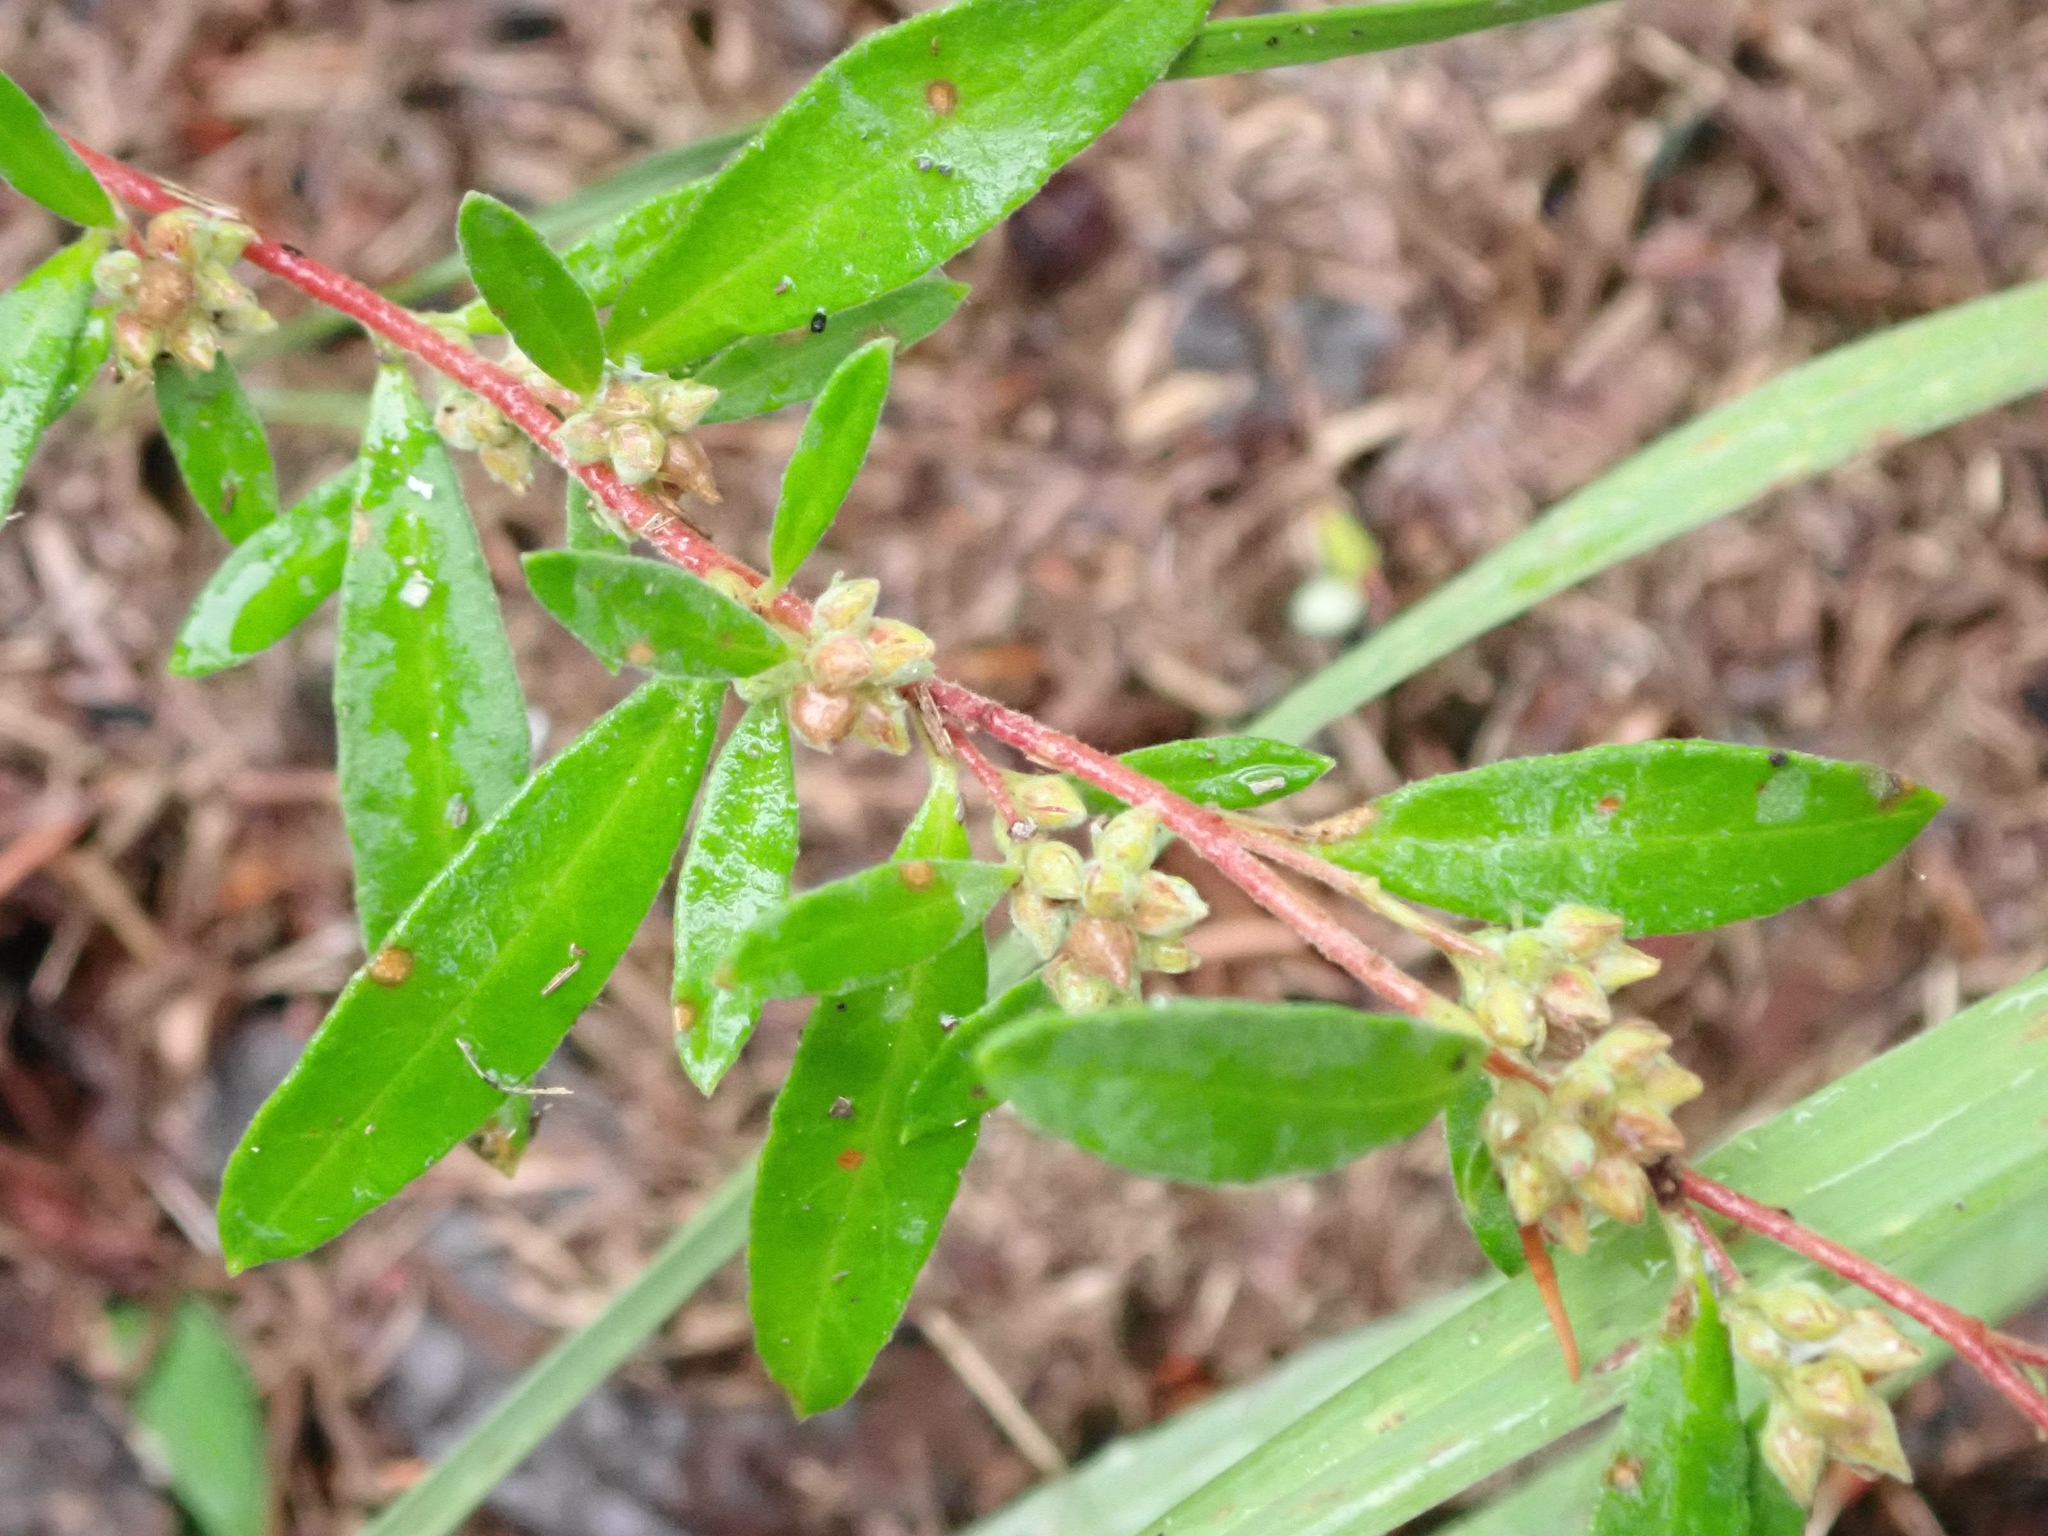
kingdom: Plantae
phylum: Tracheophyta
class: Magnoliopsida
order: Malvales
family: Cistaceae
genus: Crocanthemum
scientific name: Crocanthemum bicknellii
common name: Hoary frostweed
